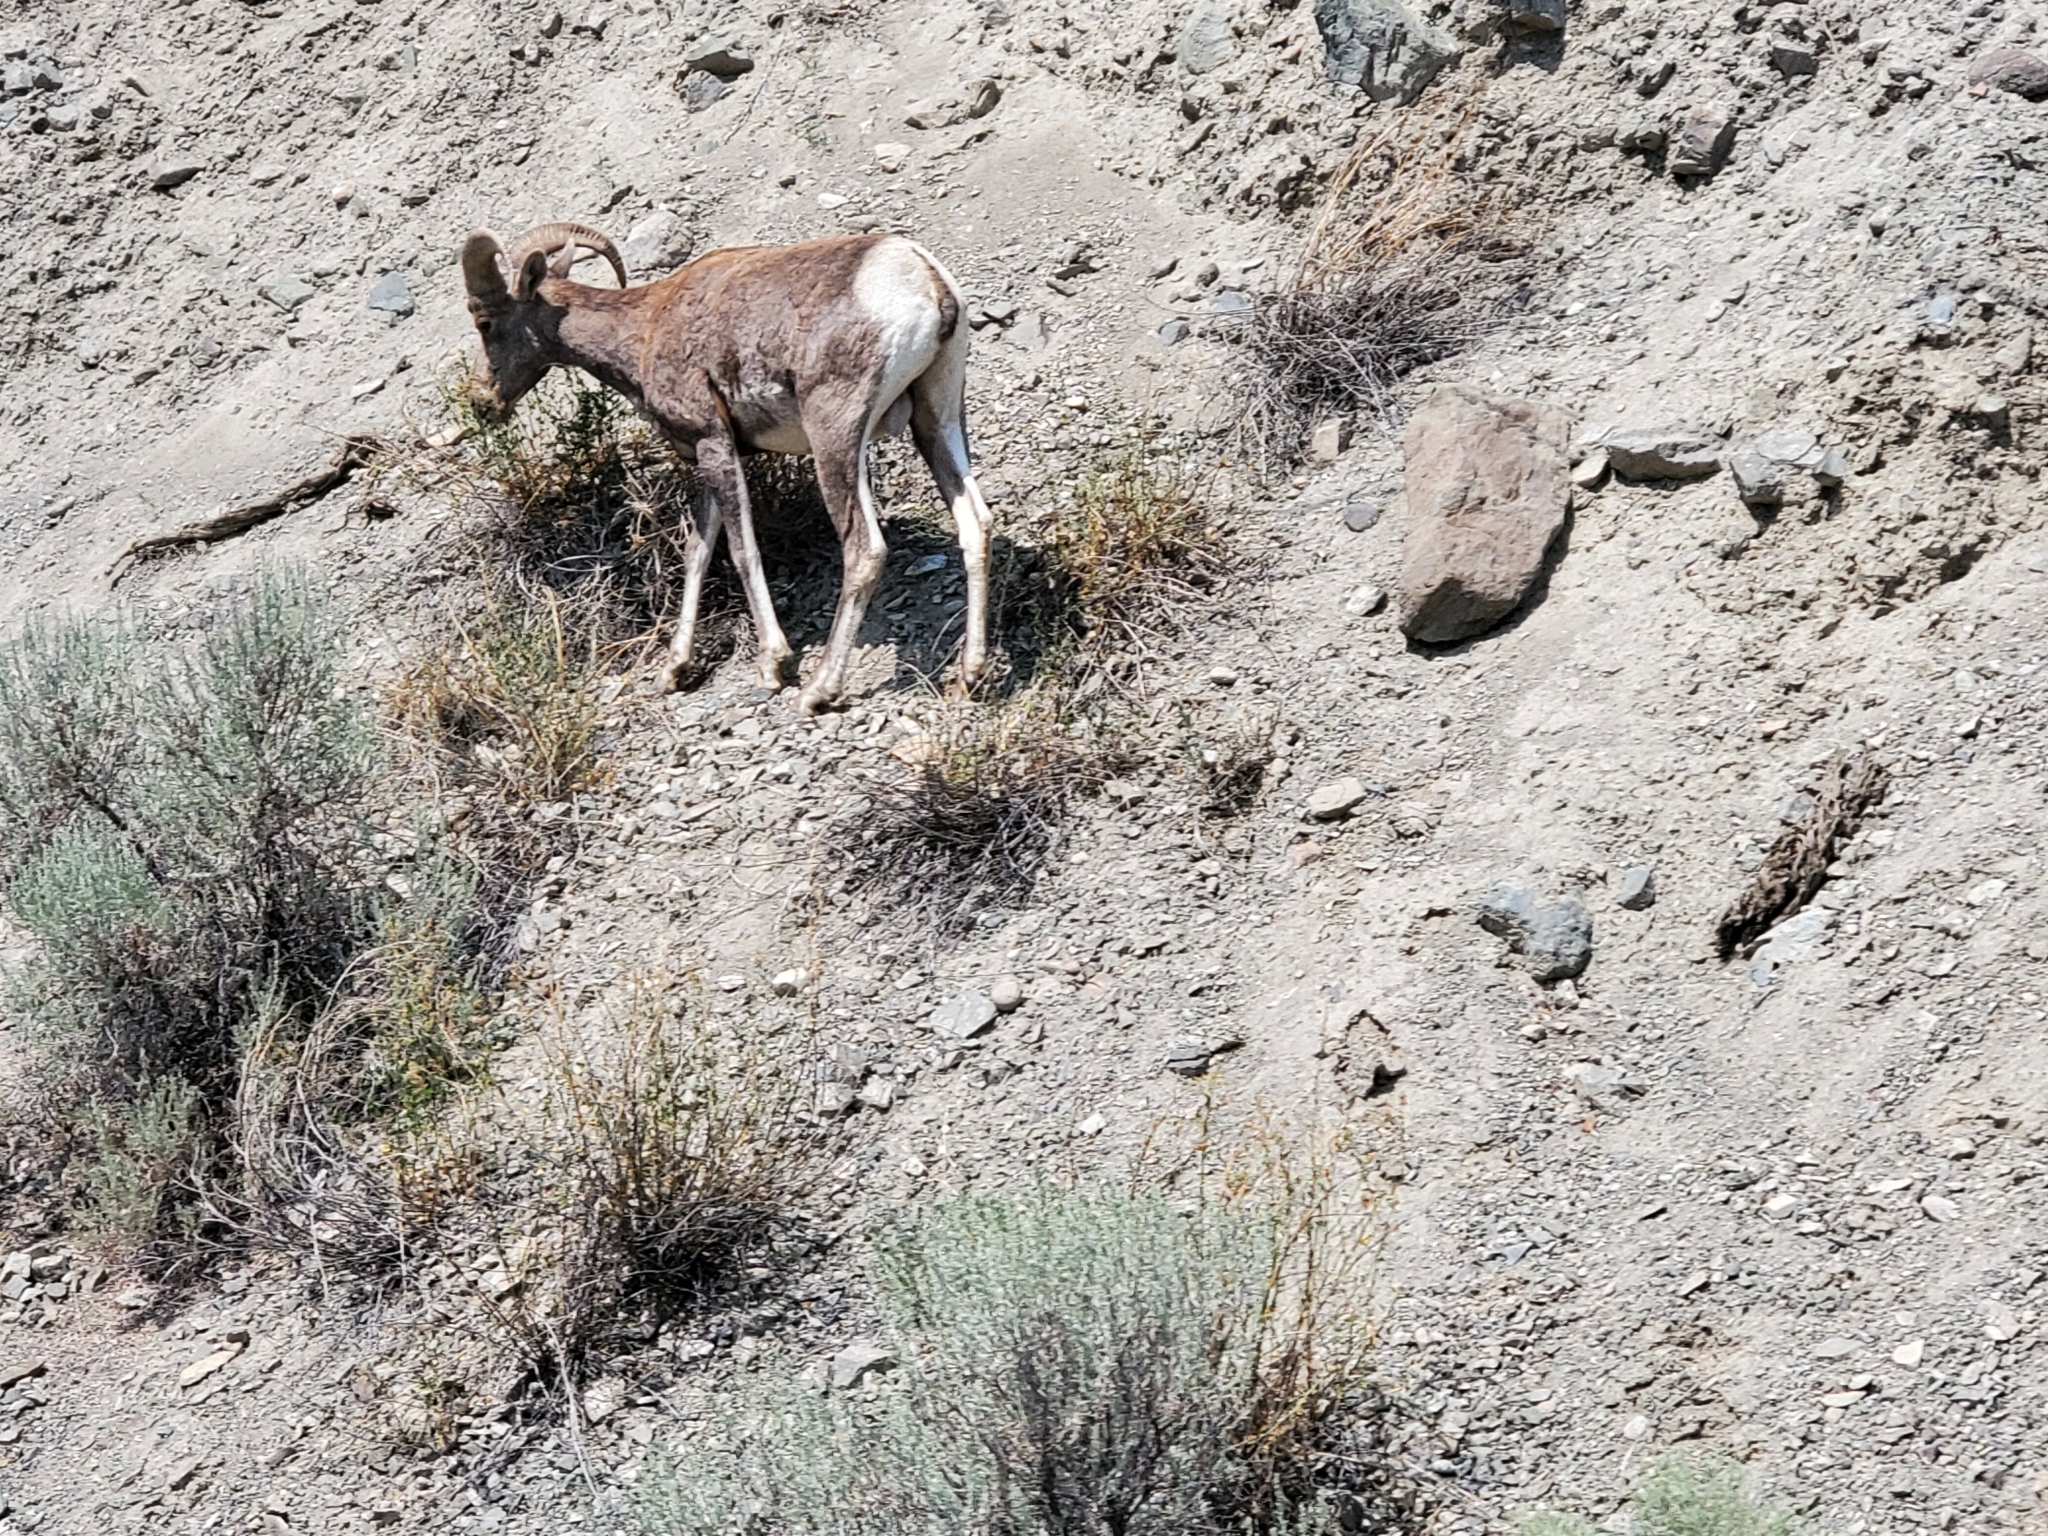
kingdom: Animalia
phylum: Chordata
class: Mammalia
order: Artiodactyla
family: Bovidae
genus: Ovis
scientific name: Ovis canadensis
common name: Bighorn sheep
